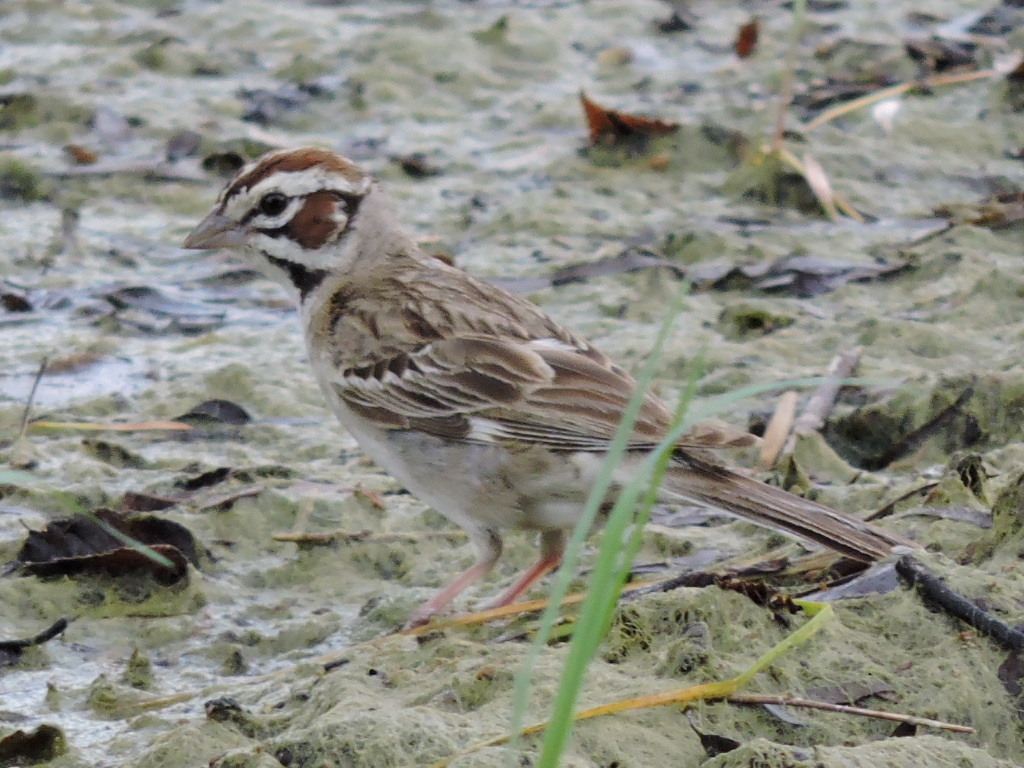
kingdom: Animalia
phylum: Chordata
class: Aves
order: Passeriformes
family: Passerellidae
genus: Chondestes
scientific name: Chondestes grammacus
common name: Lark sparrow
